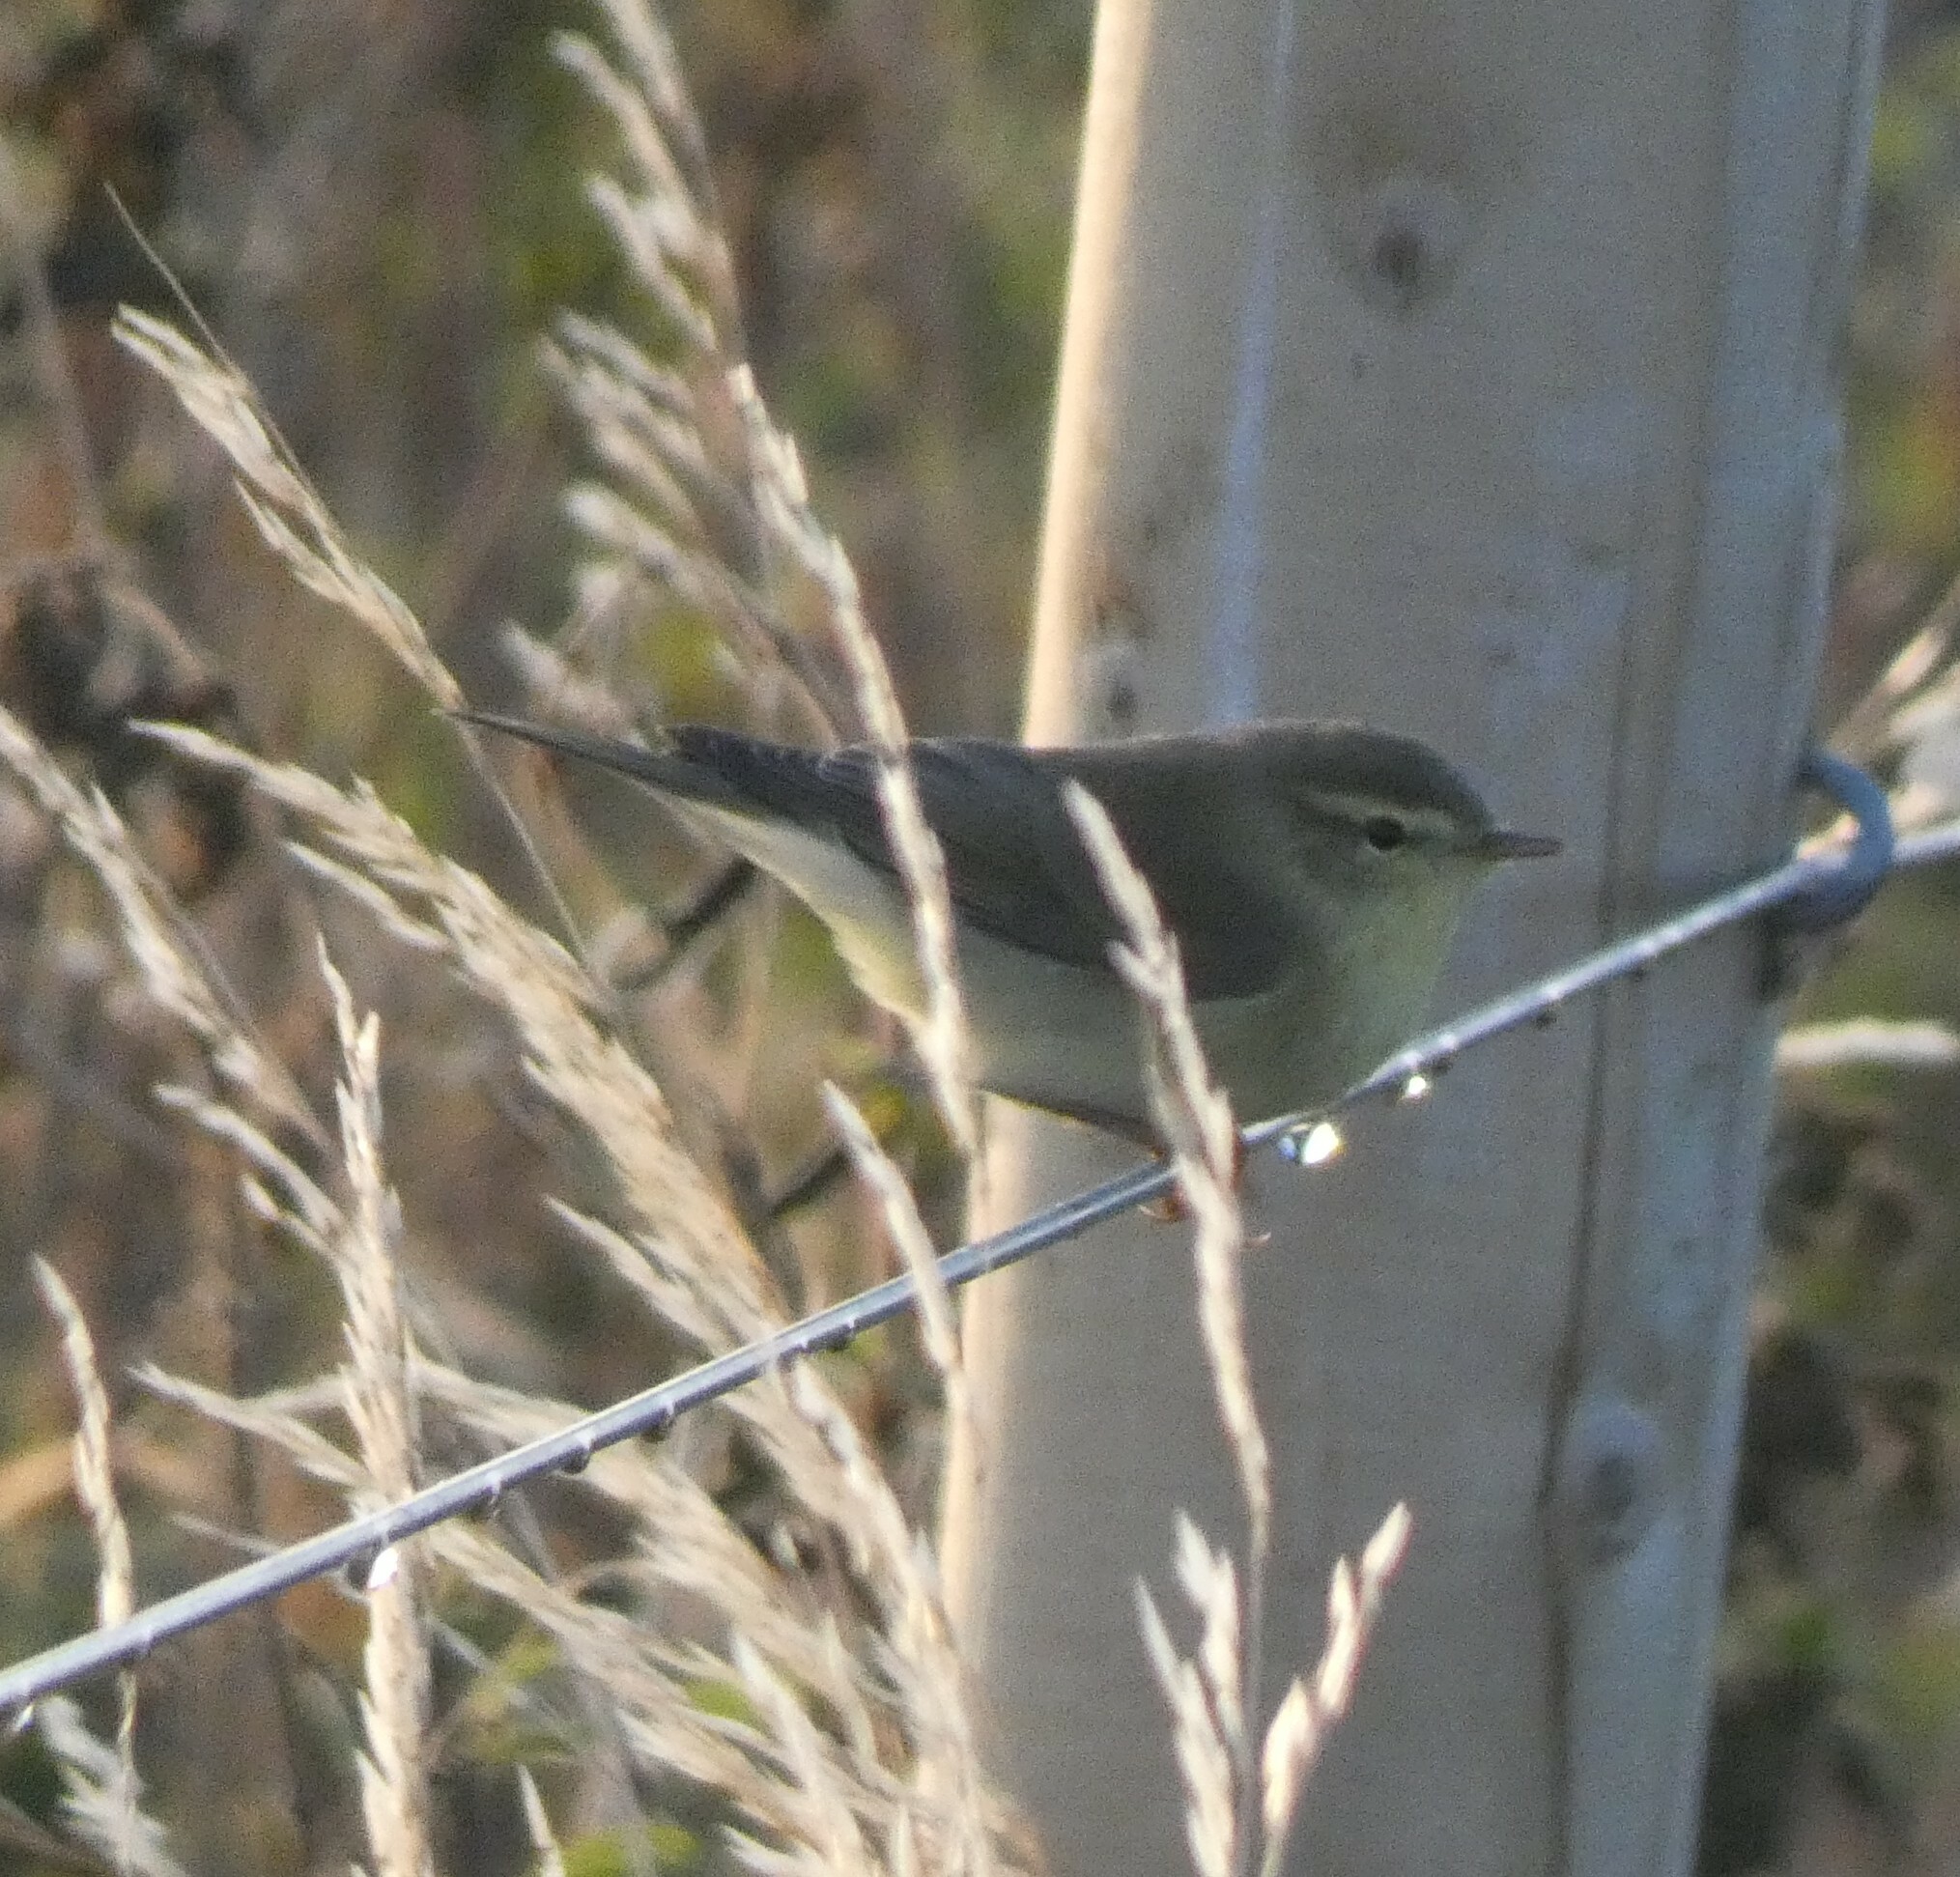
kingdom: Animalia
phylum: Chordata
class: Aves
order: Passeriformes
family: Phylloscopidae
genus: Phylloscopus
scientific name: Phylloscopus trochilus
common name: Willow warbler
